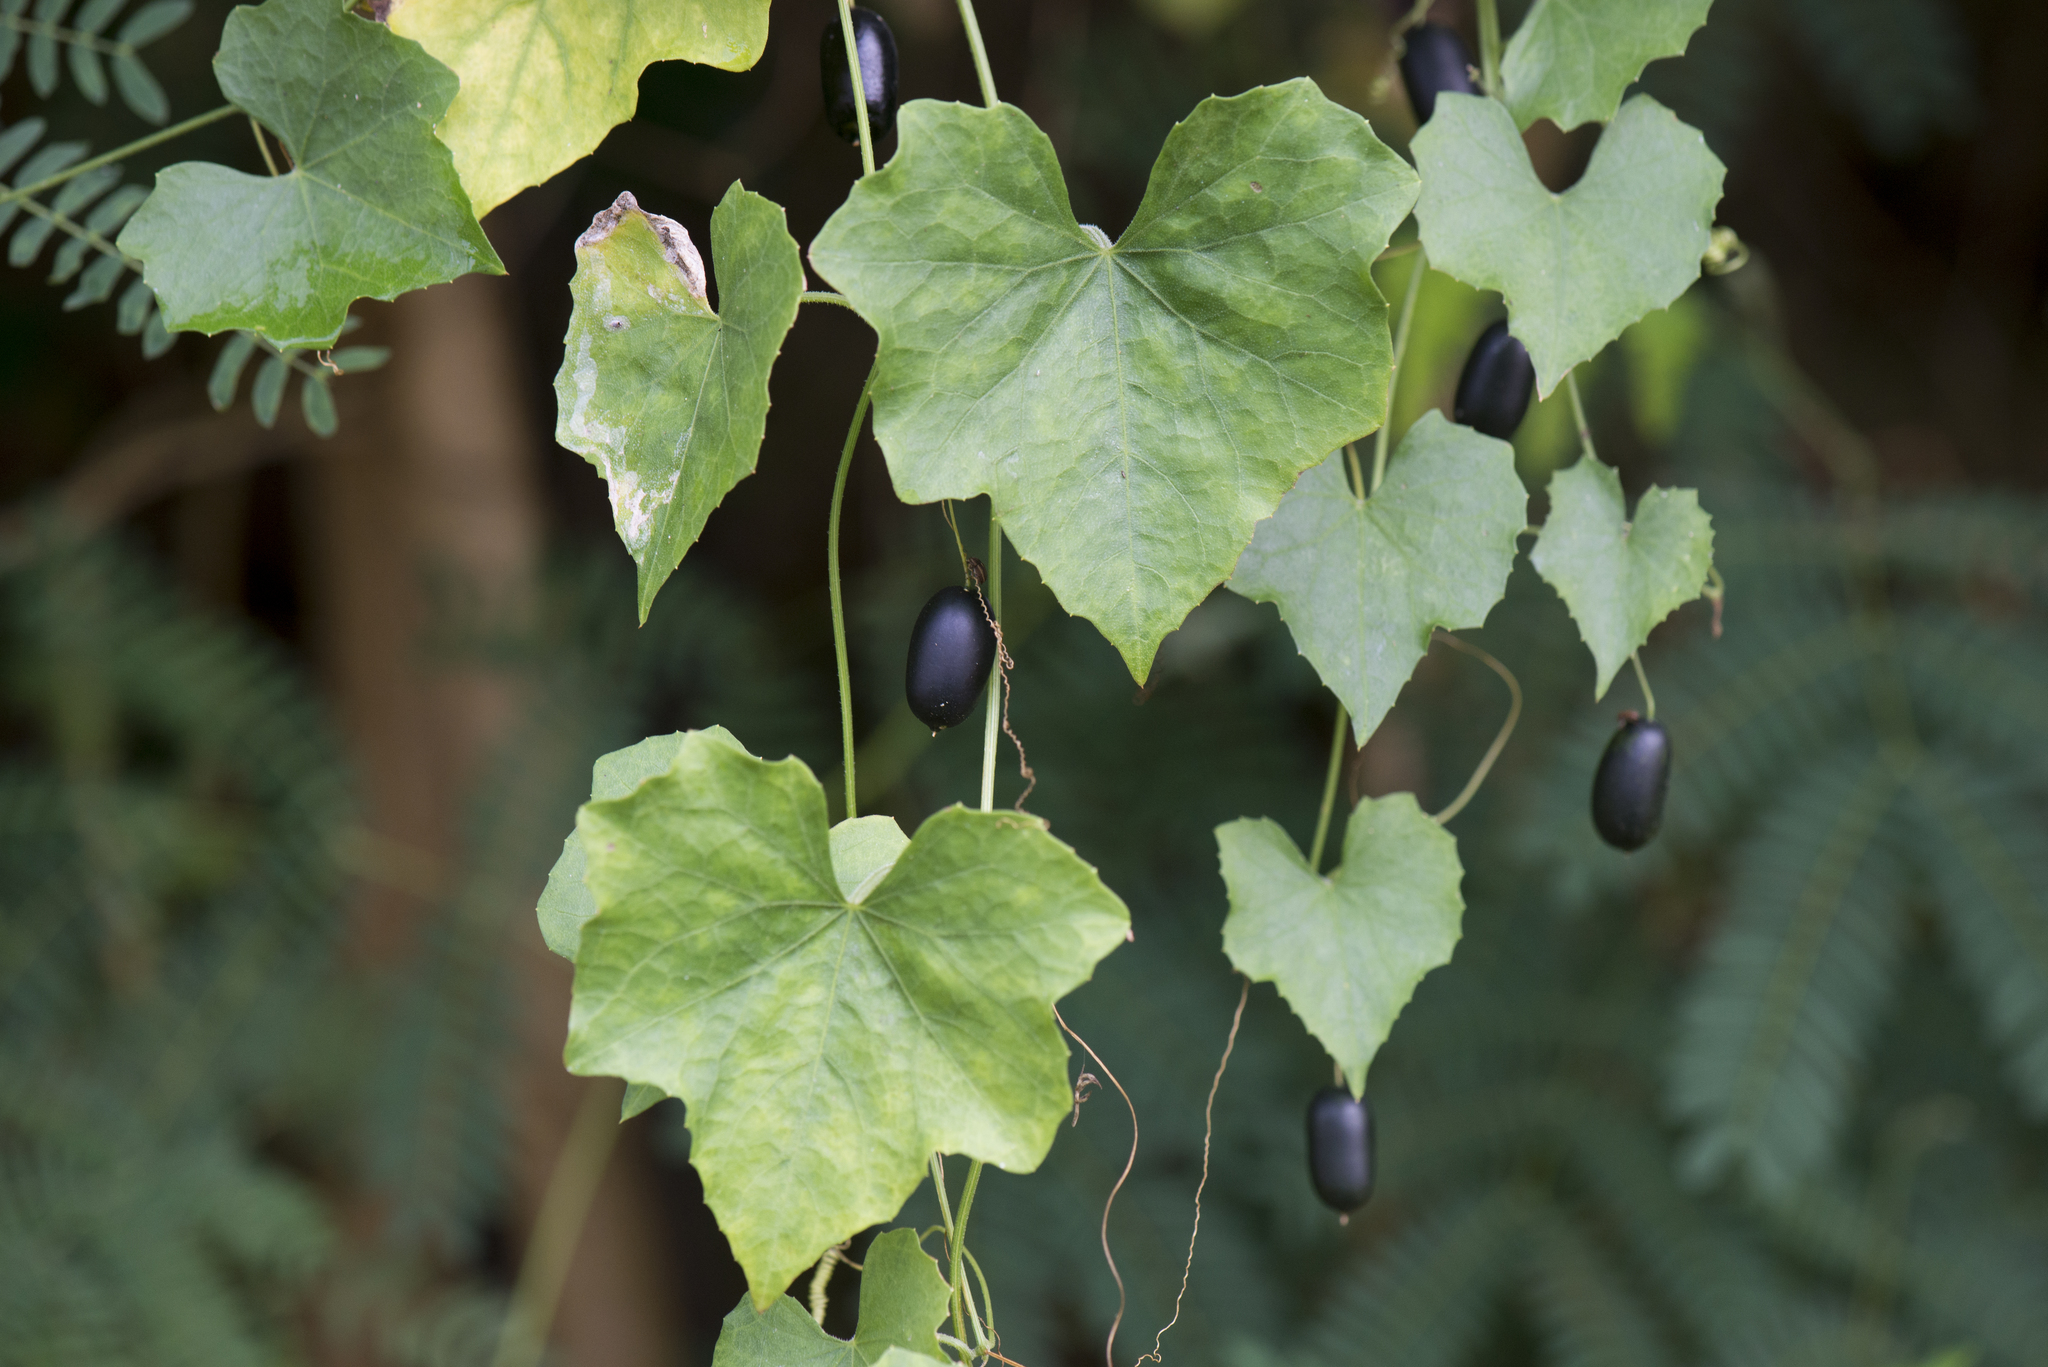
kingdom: Plantae
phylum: Tracheophyta
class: Magnoliopsida
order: Cucurbitales
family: Cucurbitaceae
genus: Melothria
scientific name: Melothria pendula
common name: Creeping-cucumber
